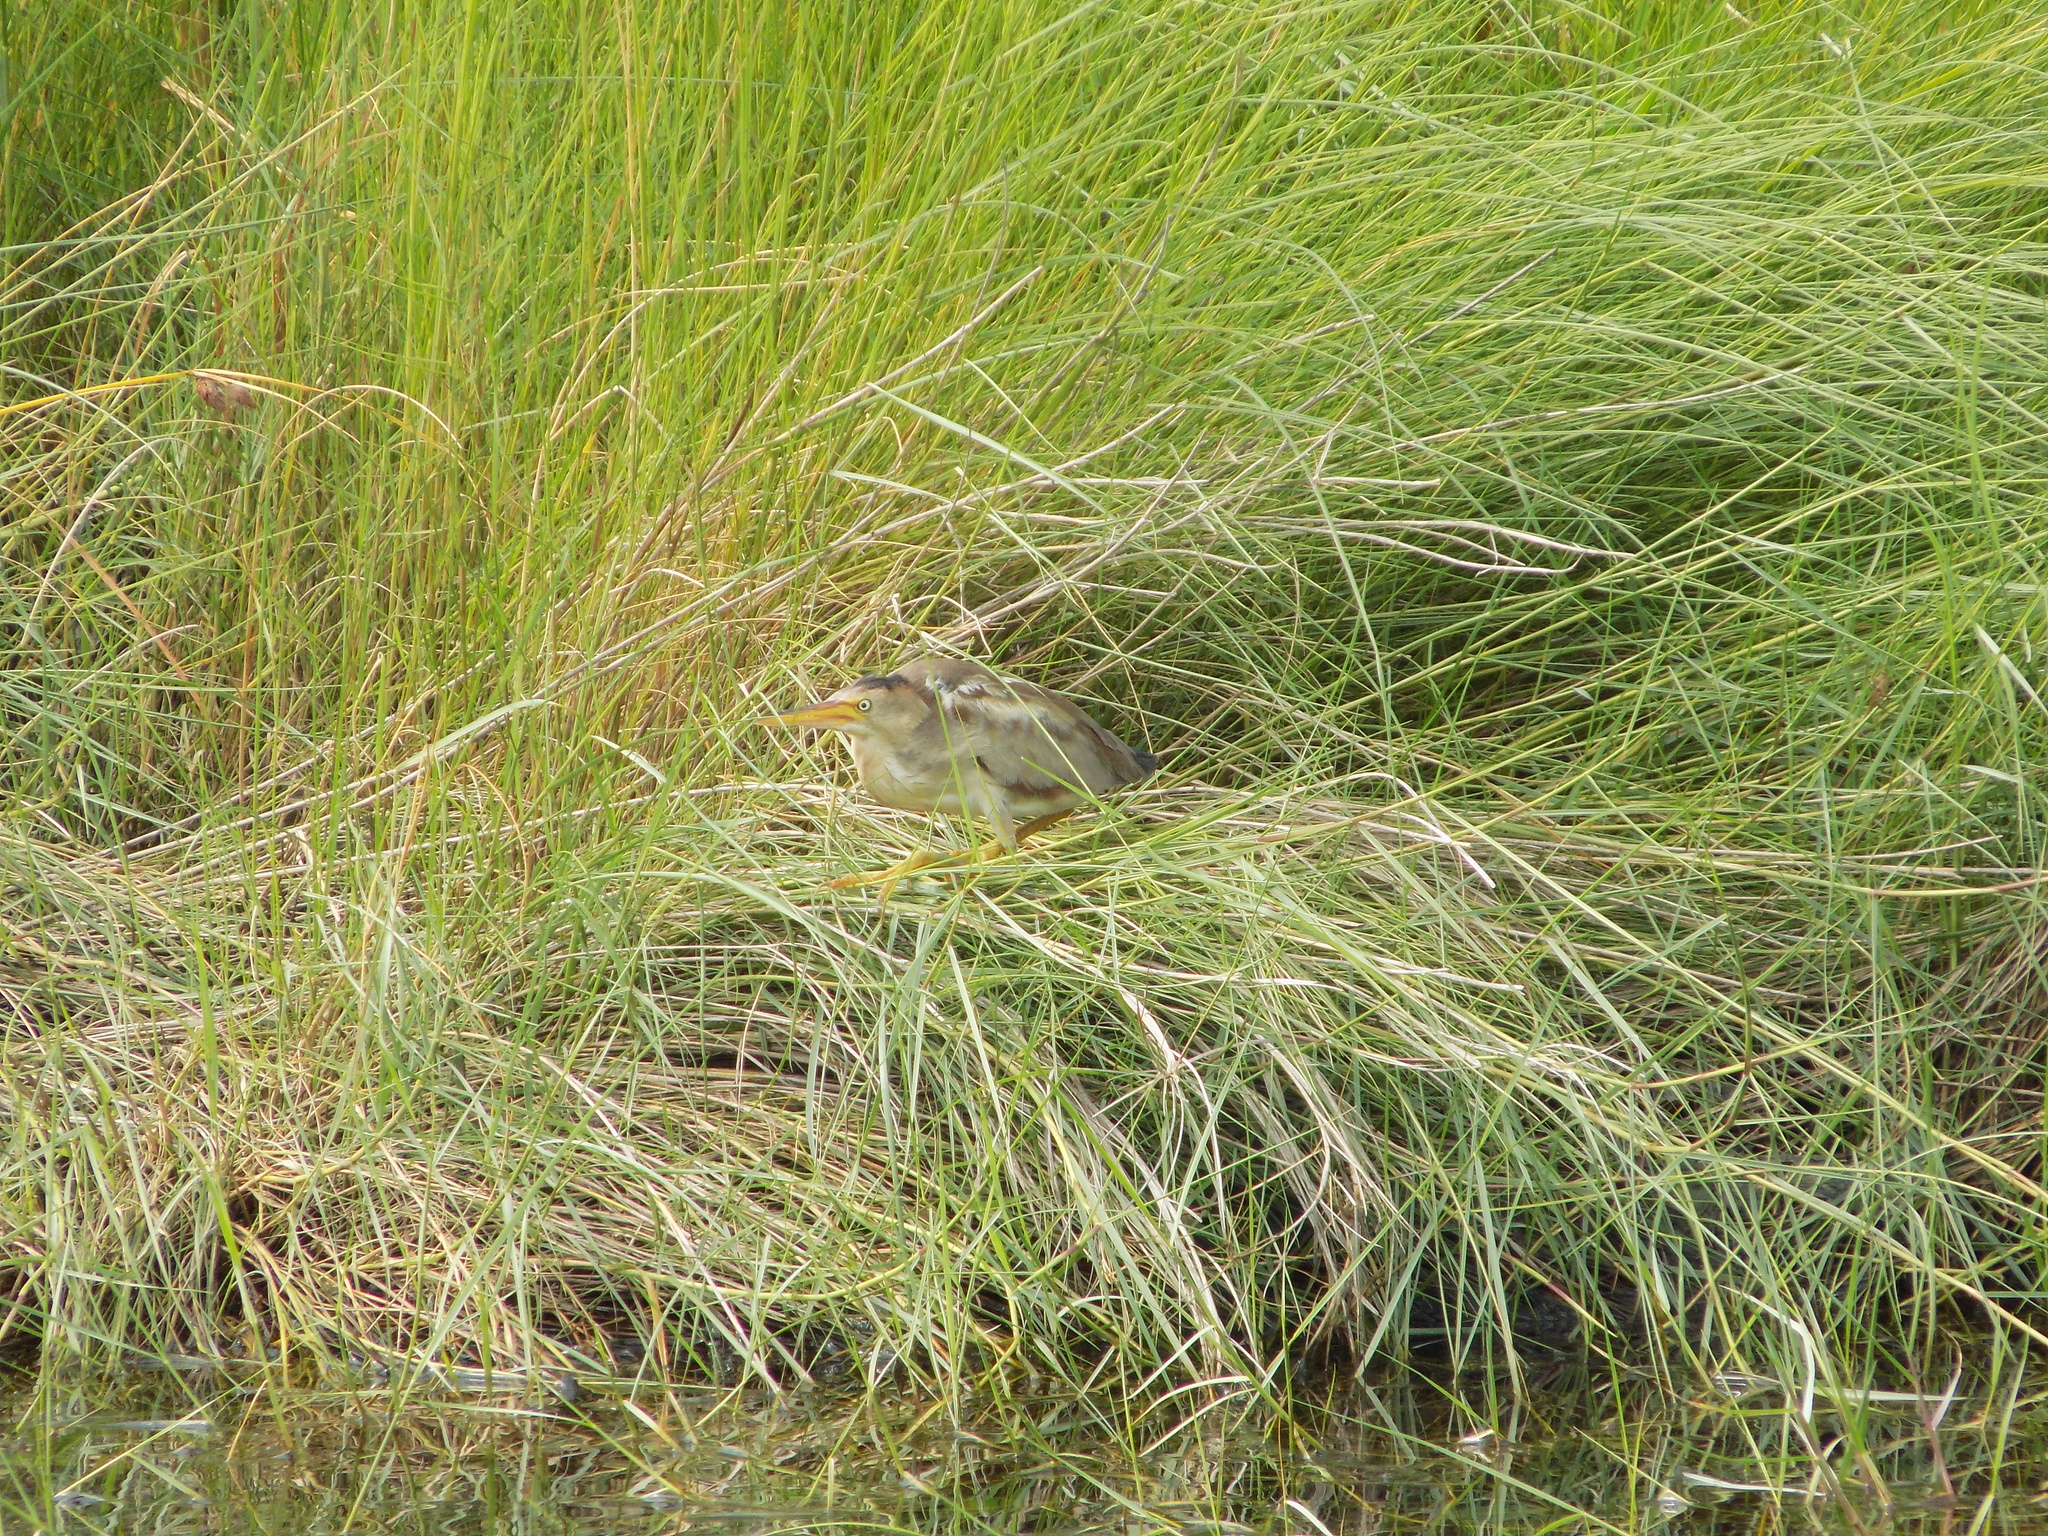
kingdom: Animalia
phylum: Chordata
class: Aves
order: Pelecaniformes
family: Ardeidae
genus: Ixobrychus
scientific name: Ixobrychus exilis
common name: Least bittern
